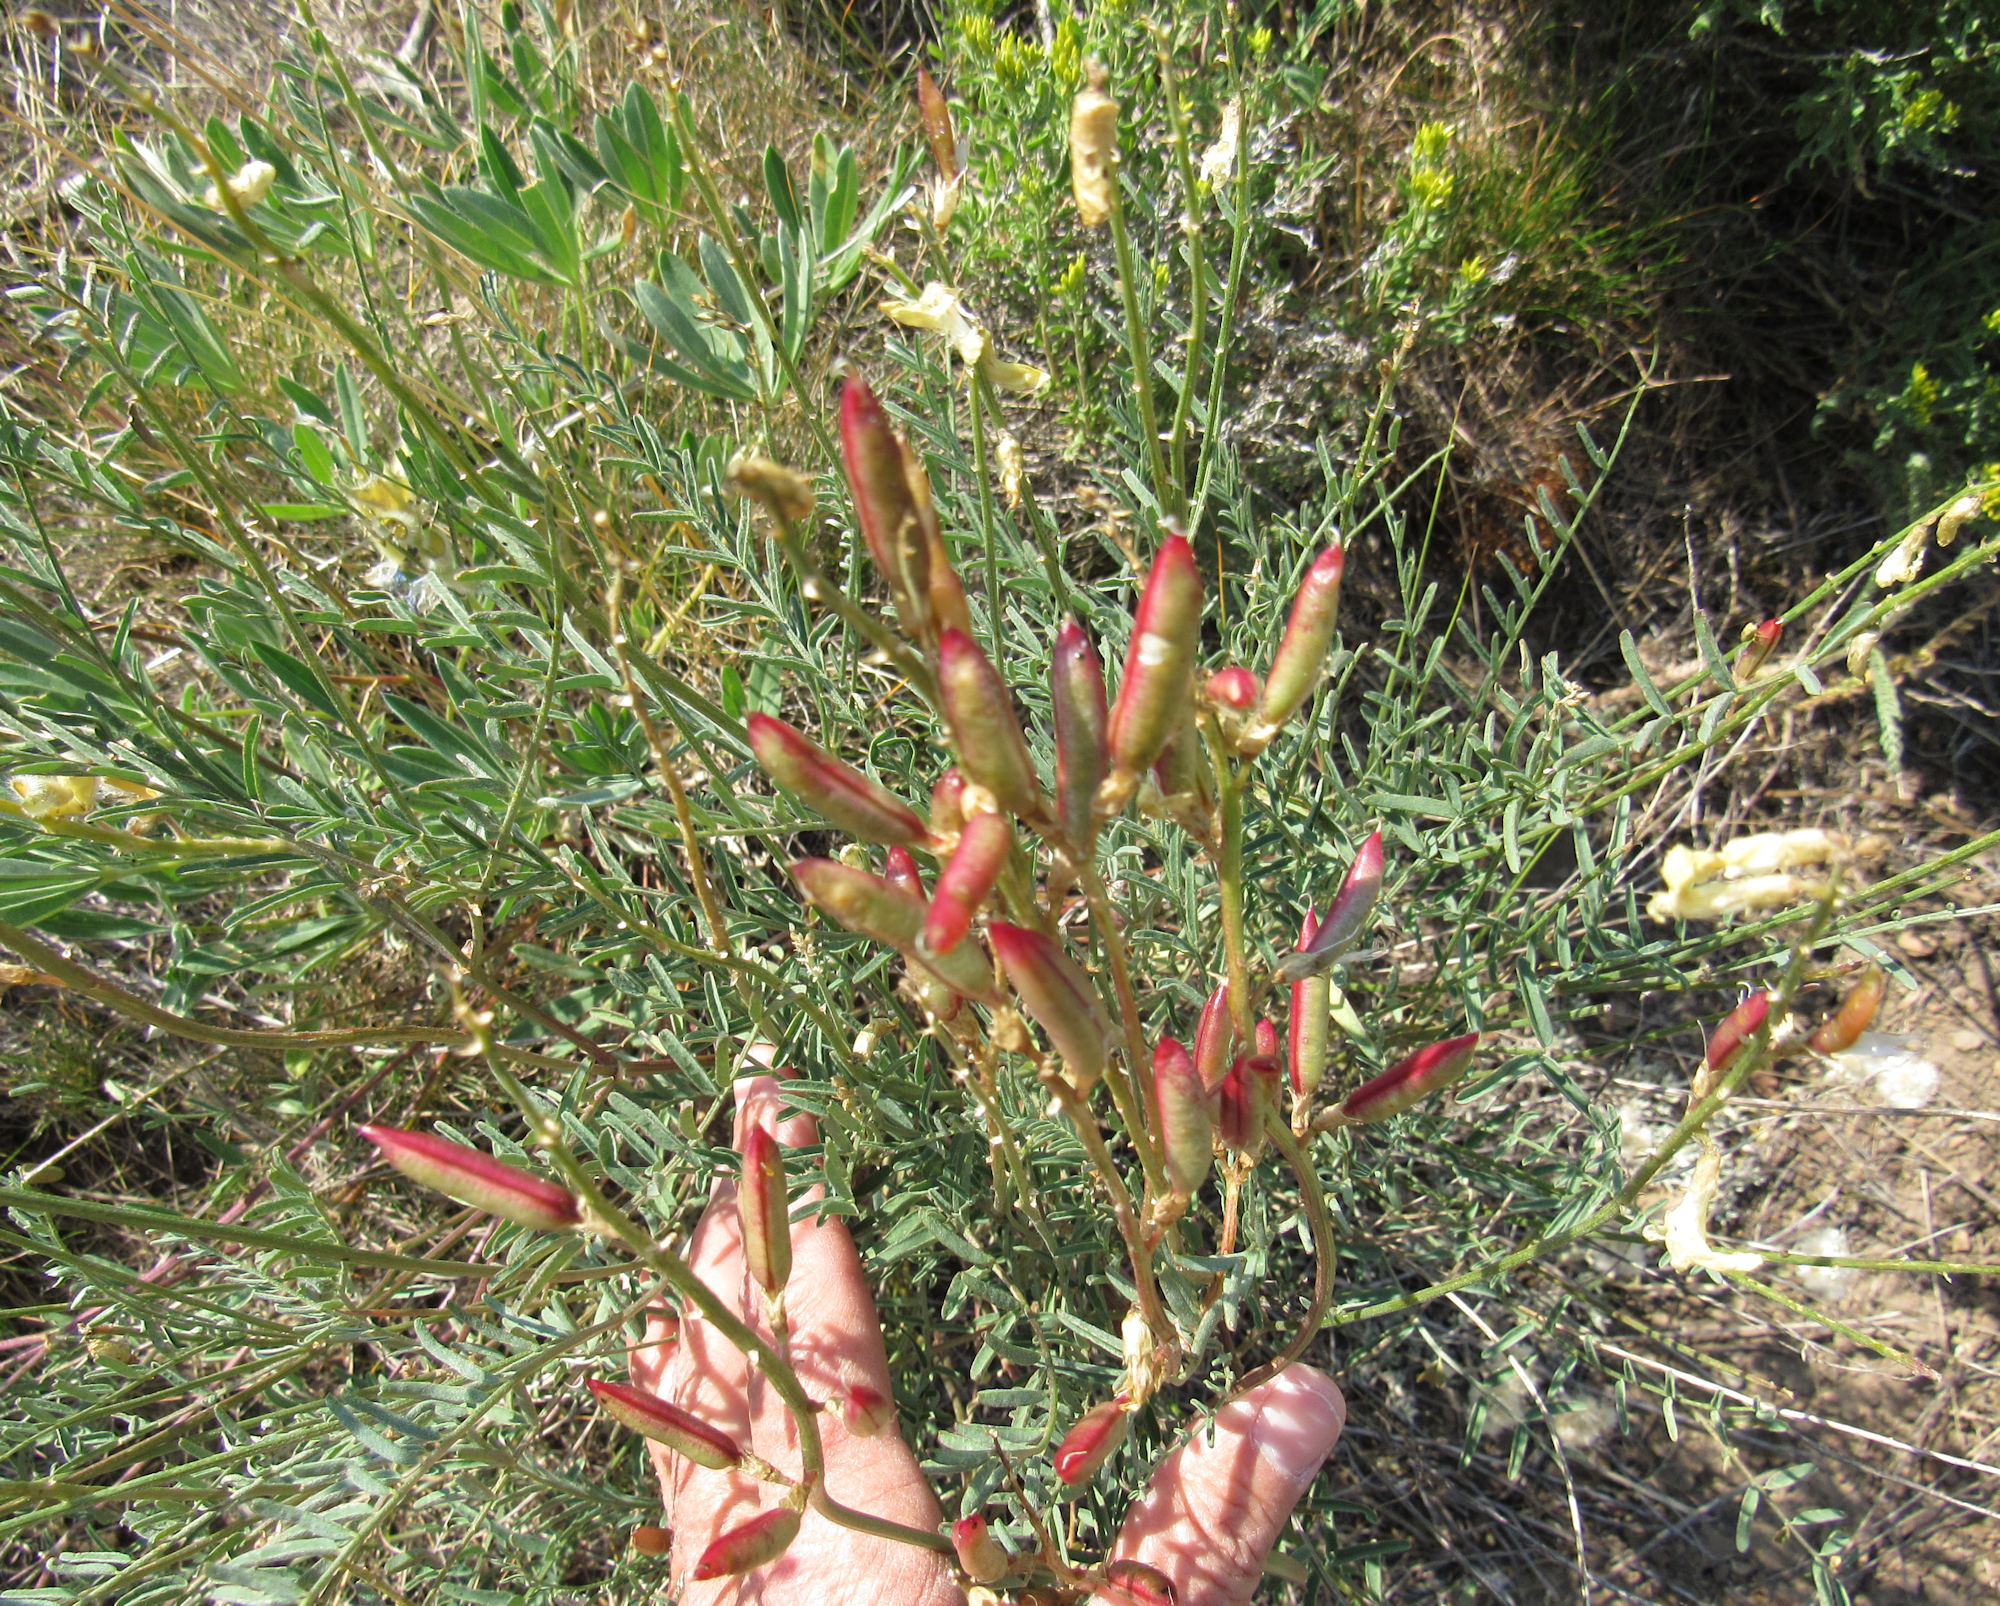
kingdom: Plantae
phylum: Tracheophyta
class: Magnoliopsida
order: Fabales
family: Fabaceae
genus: Astragalus
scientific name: Astragalus atropubescens
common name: Kelsey milk-vetch
